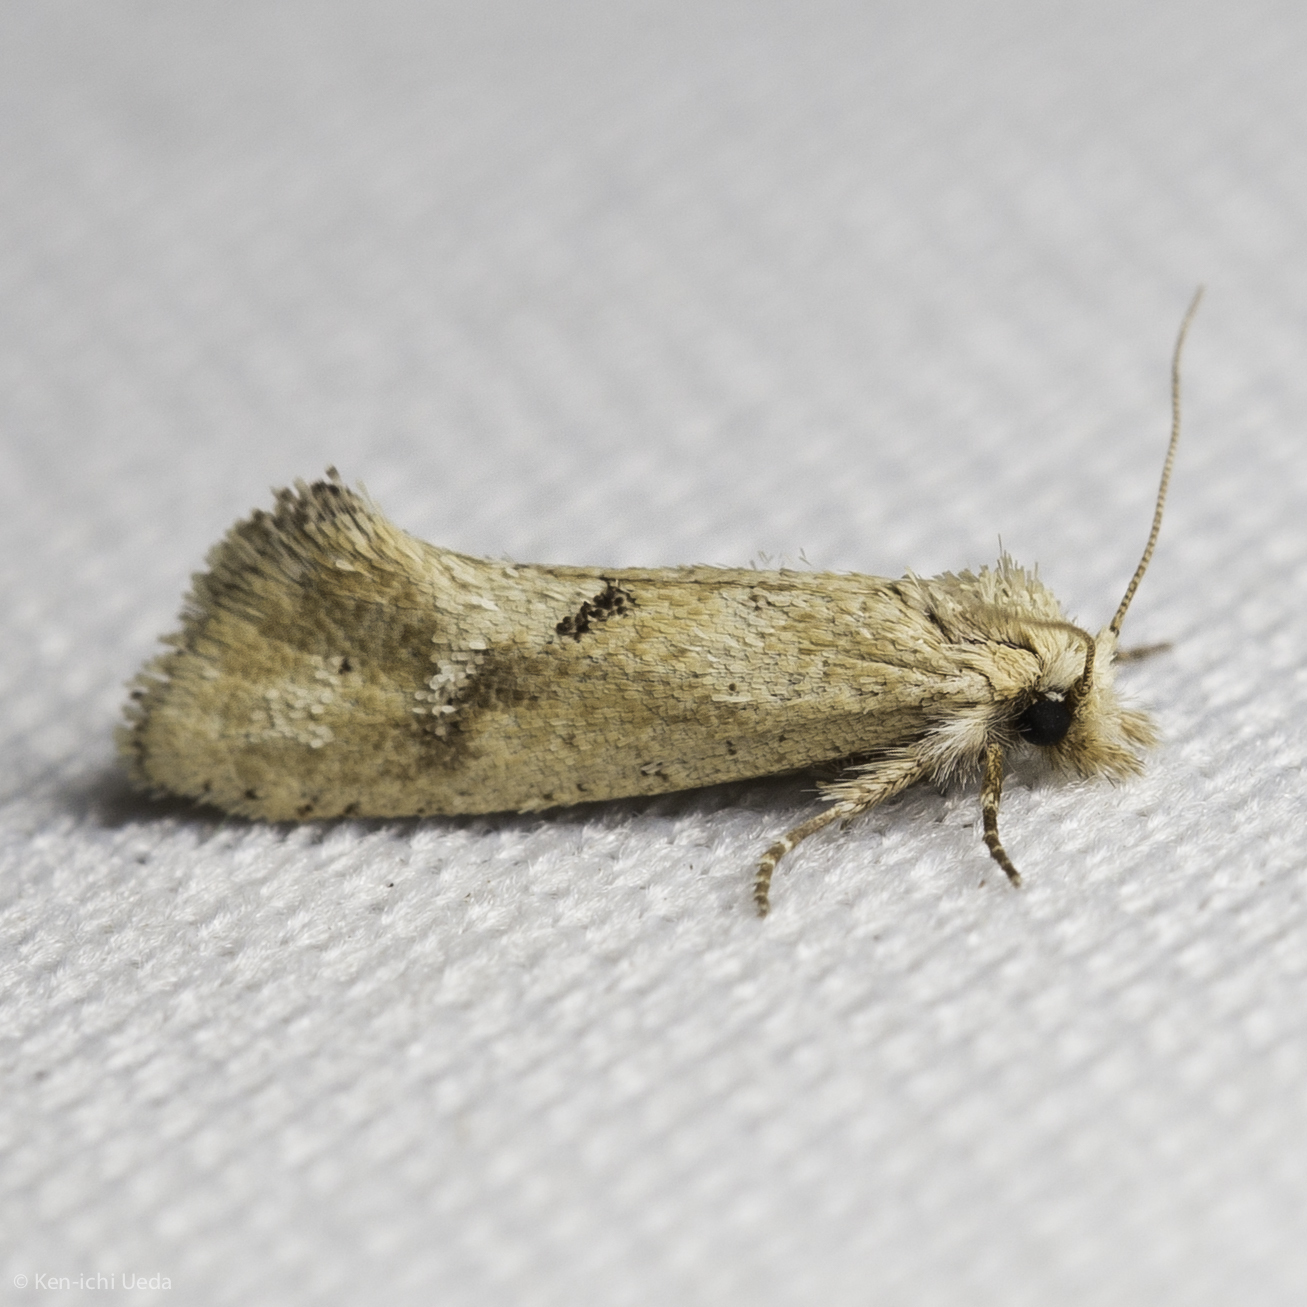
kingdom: Animalia
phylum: Arthropoda
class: Insecta
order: Lepidoptera
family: Tineidae
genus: Acrolophus
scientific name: Acrolophus laticapitana
